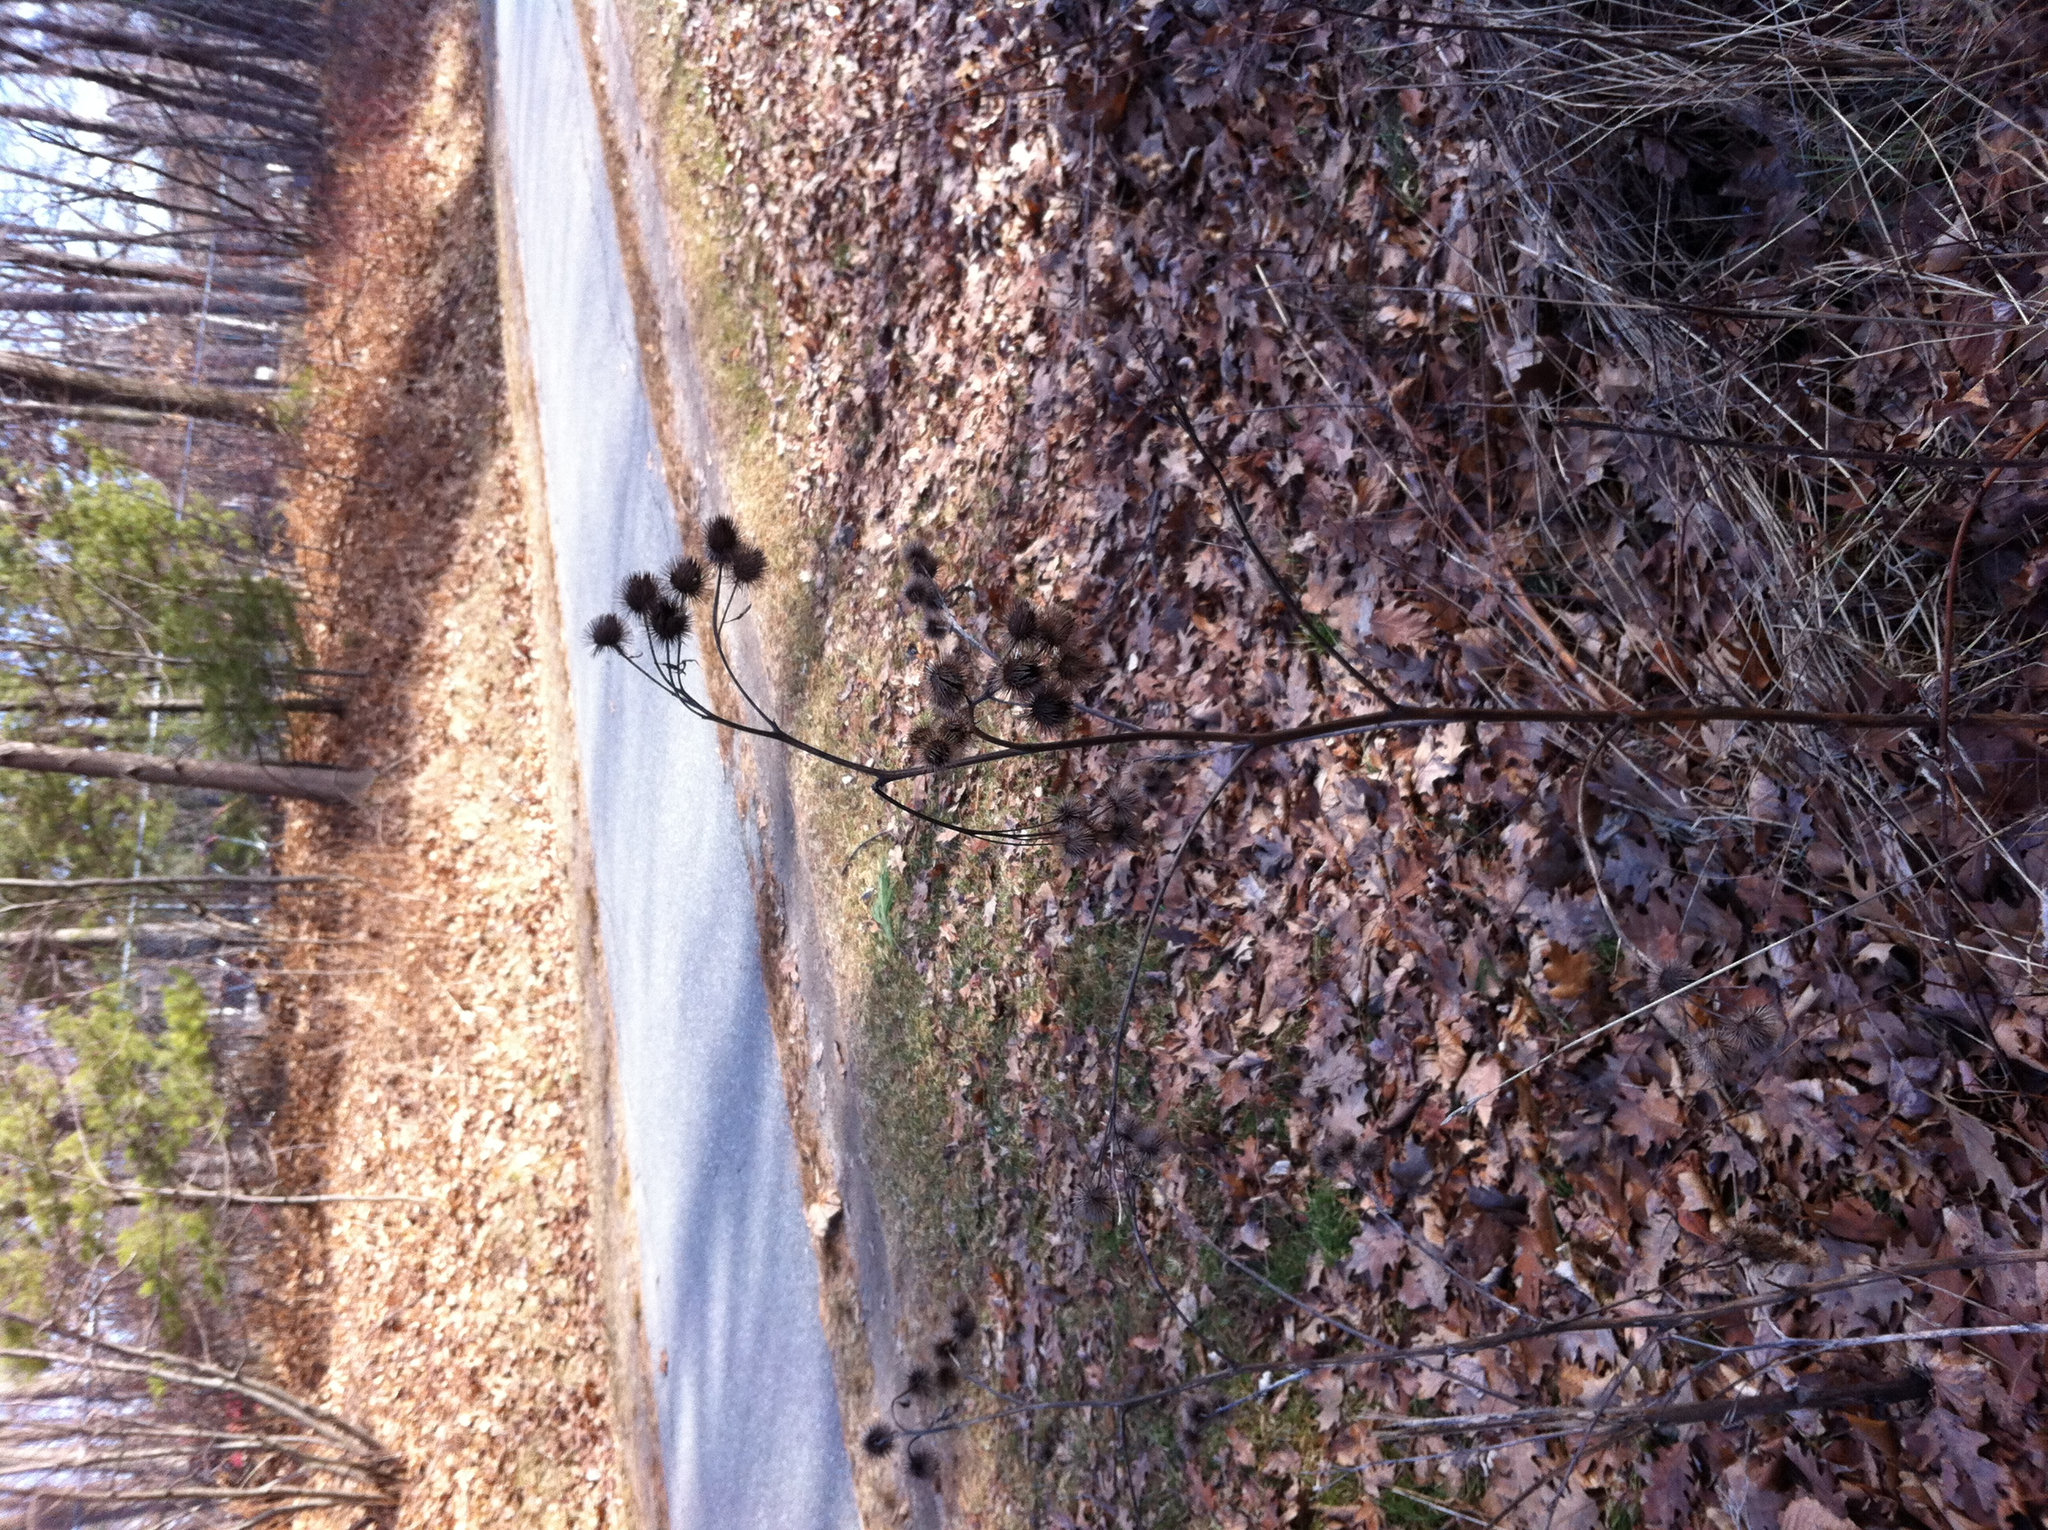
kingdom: Plantae
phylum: Tracheophyta
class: Magnoliopsida
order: Asterales
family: Asteraceae
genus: Arctium
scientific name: Arctium lappa
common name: Greater burdock
